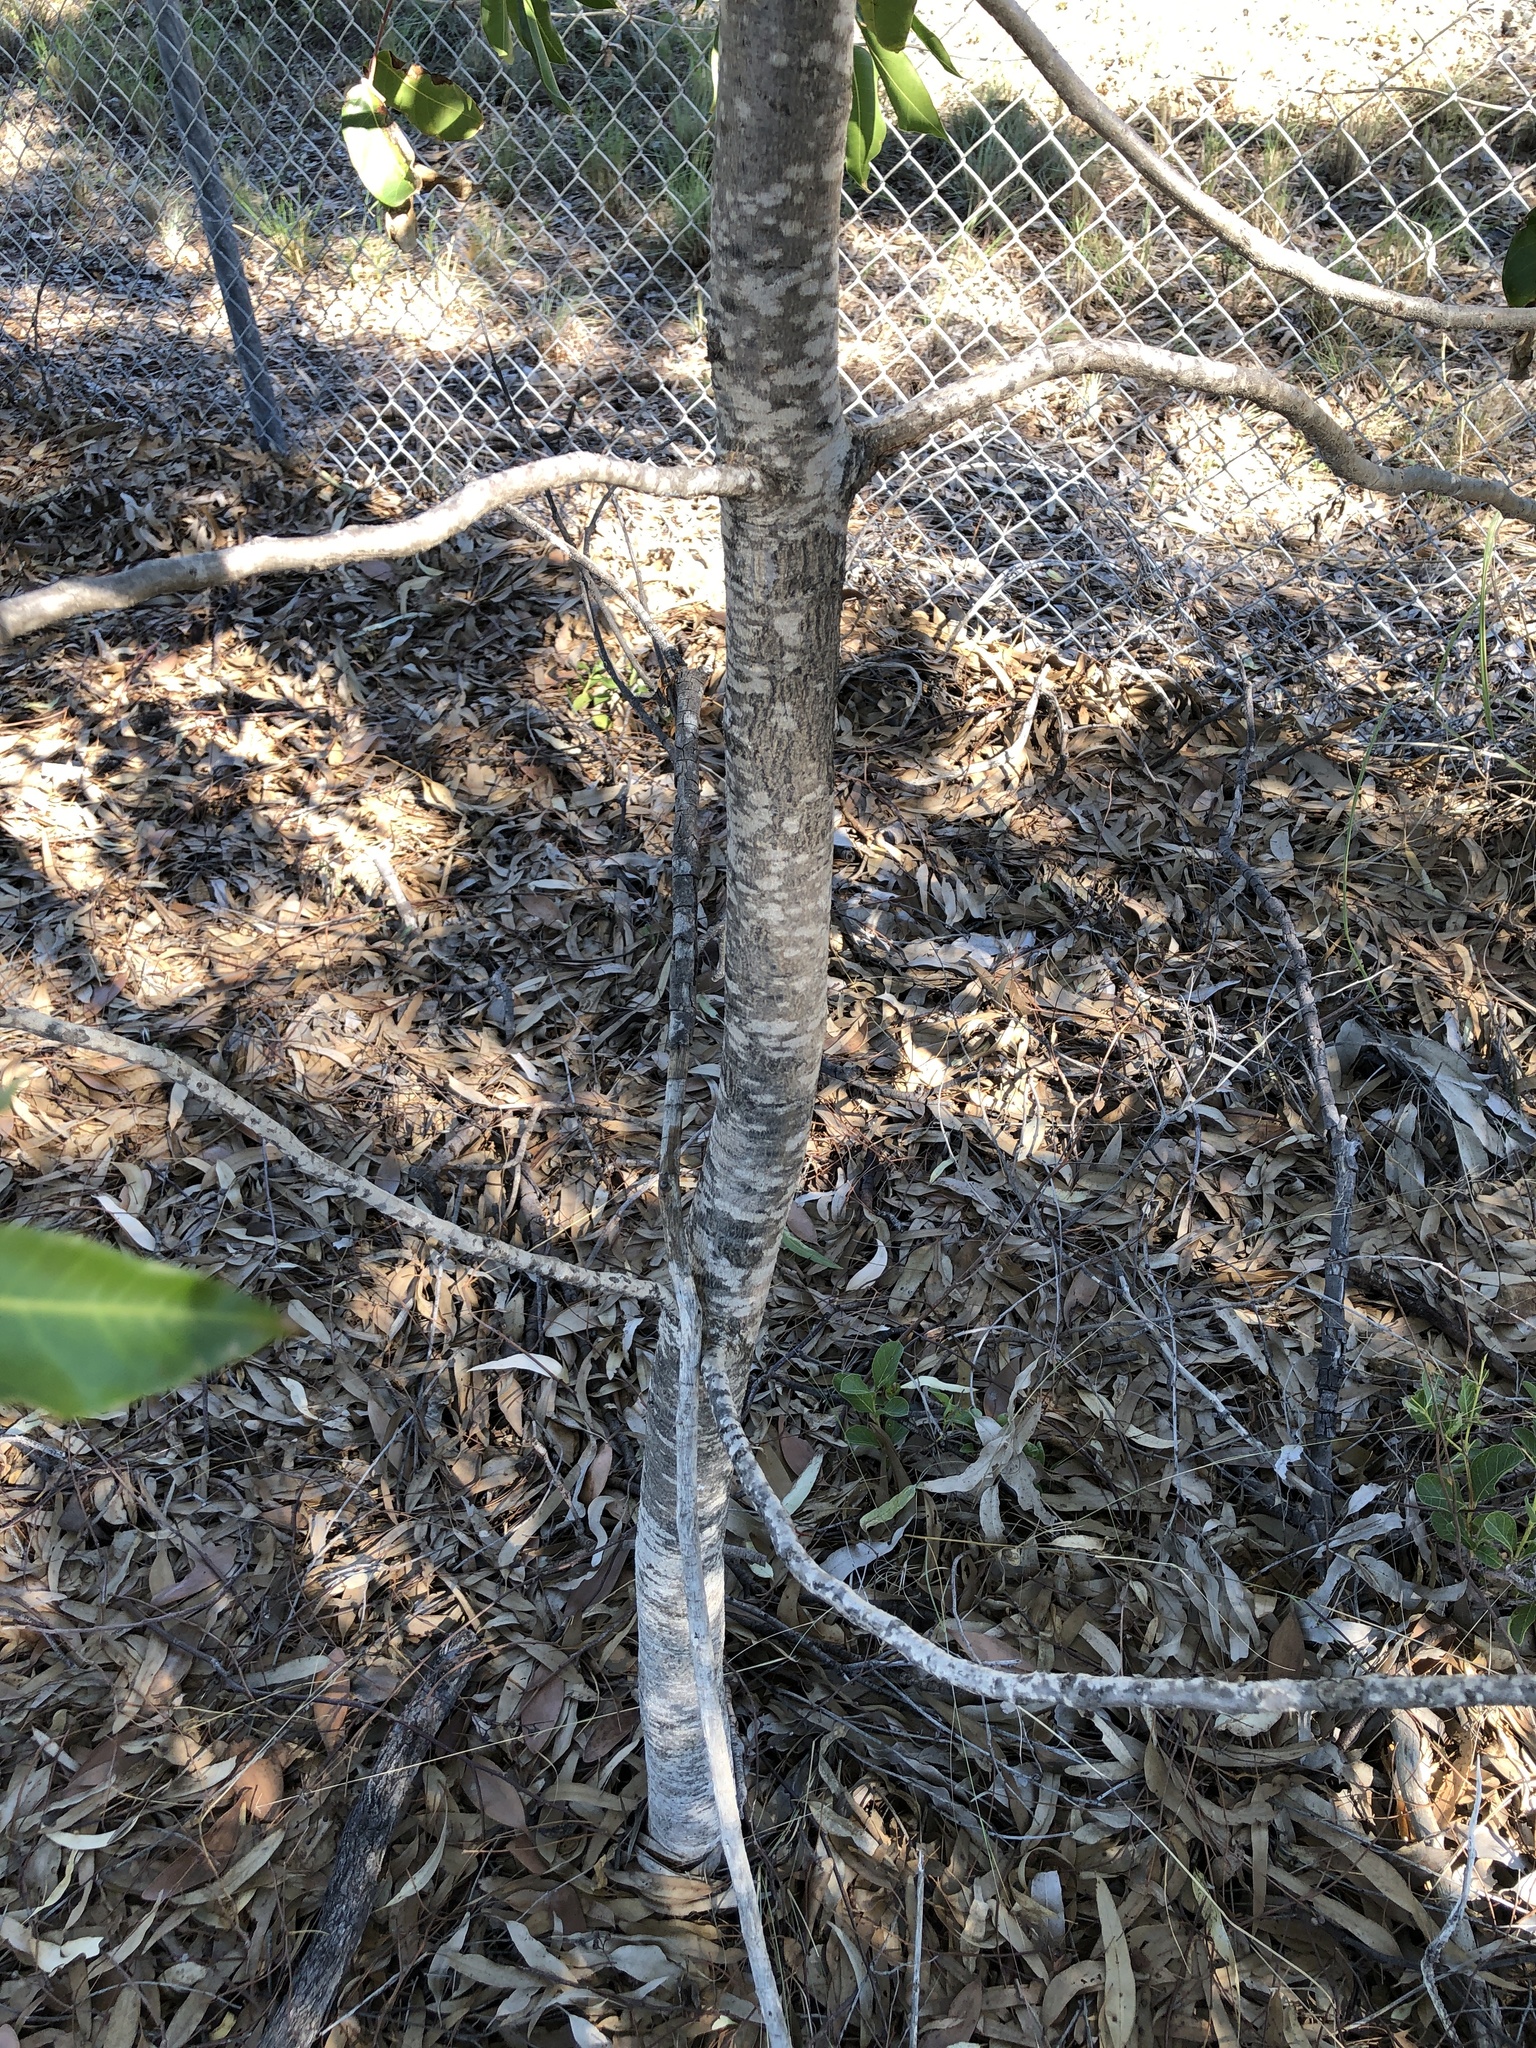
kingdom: Plantae
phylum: Tracheophyta
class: Magnoliopsida
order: Sapindales
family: Anacardiaceae
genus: Euroschinus
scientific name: Euroschinus falcatus
